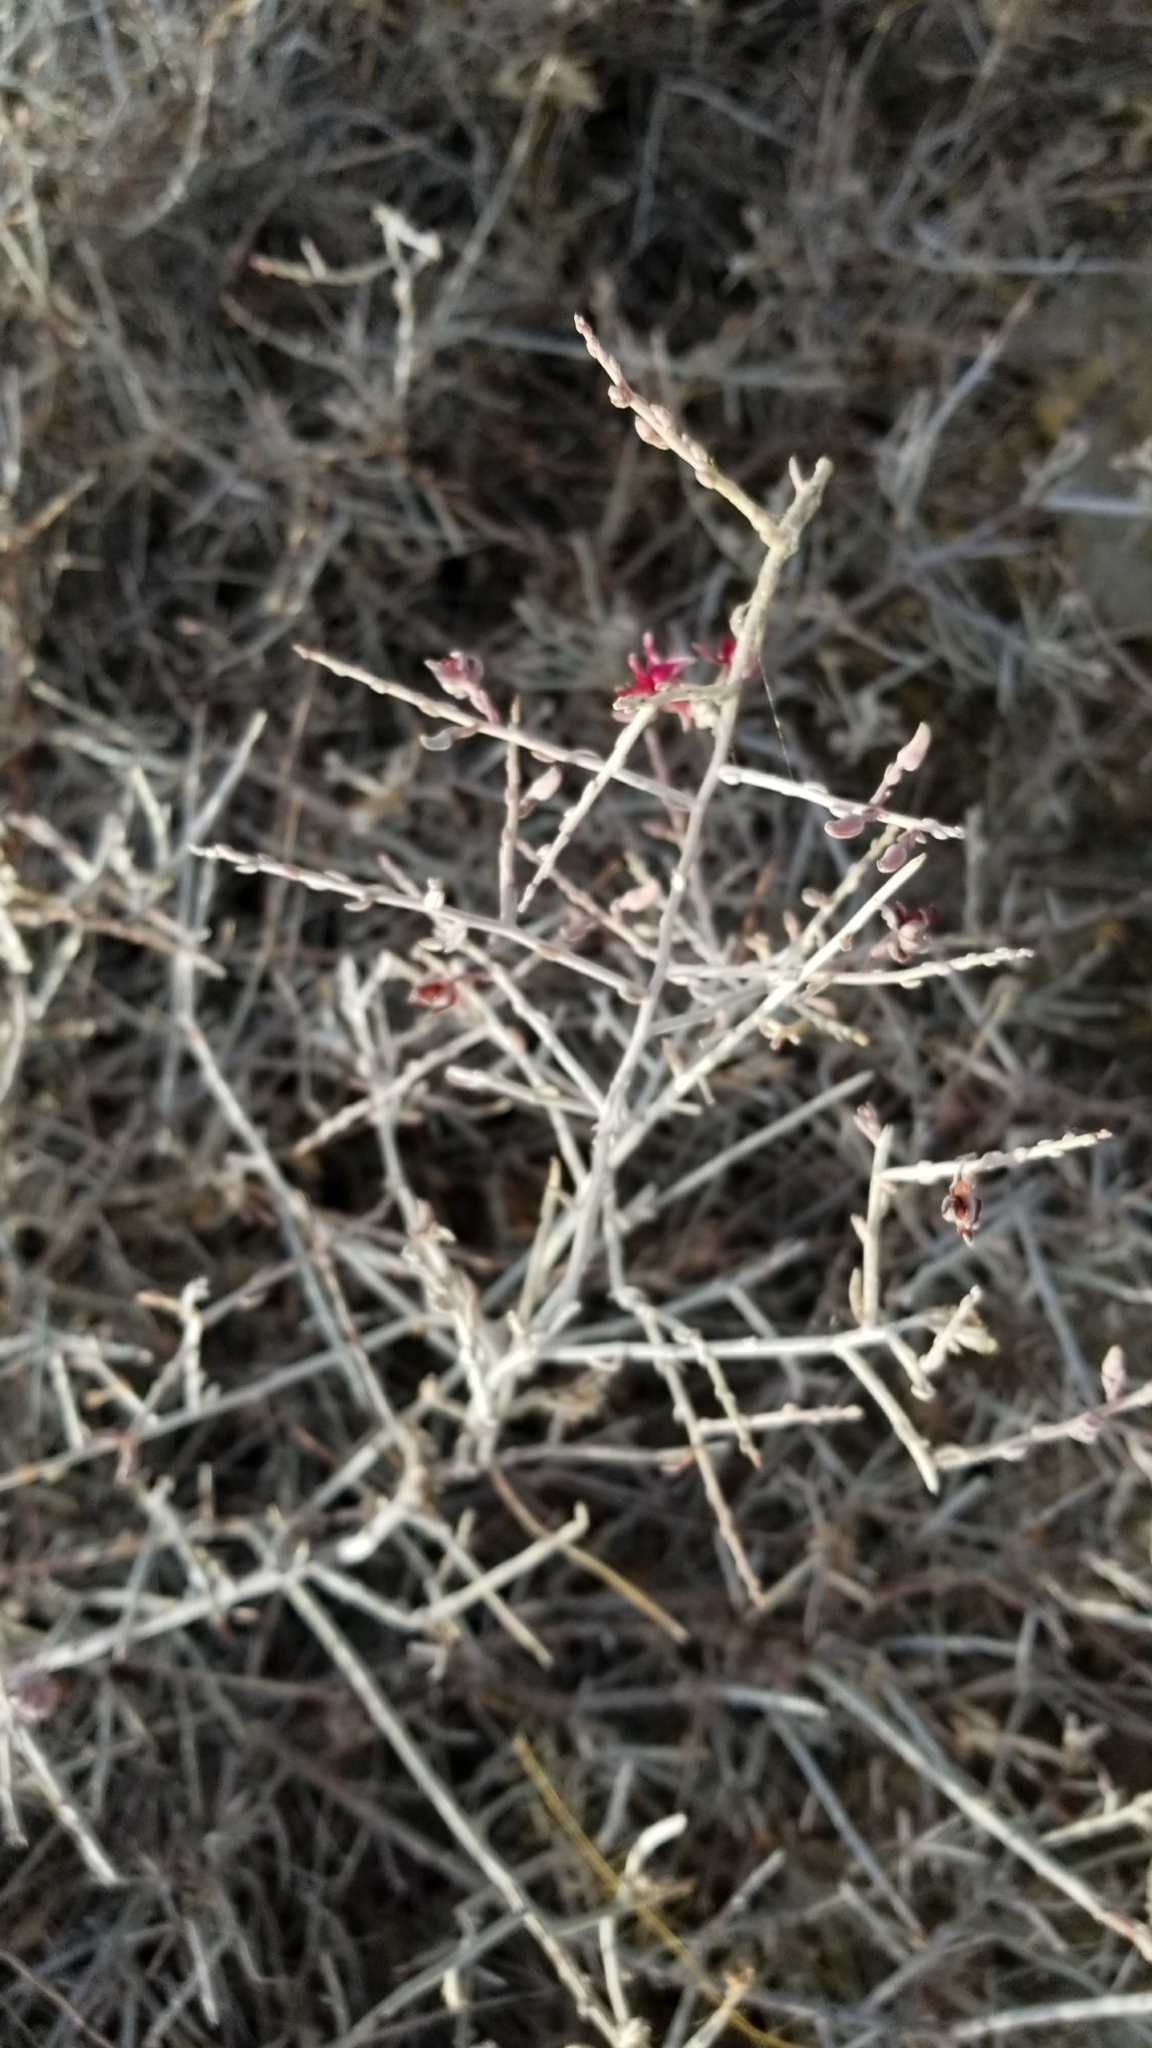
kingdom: Plantae
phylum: Tracheophyta
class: Magnoliopsida
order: Zygophyllales
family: Krameriaceae
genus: Krameria
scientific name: Krameria bicolor
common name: White ratany
